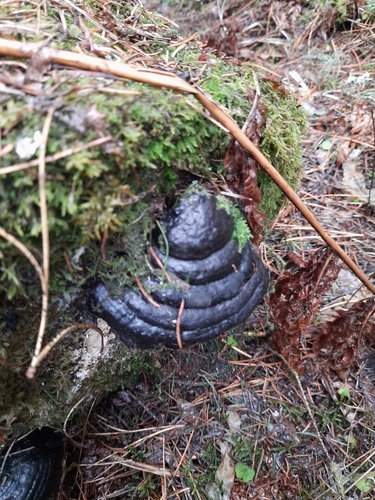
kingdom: Fungi
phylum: Basidiomycota
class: Agaricomycetes
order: Polyporales
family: Fomitopsidaceae
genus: Fomitopsis
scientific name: Fomitopsis pinicola
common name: Red-belted bracket
